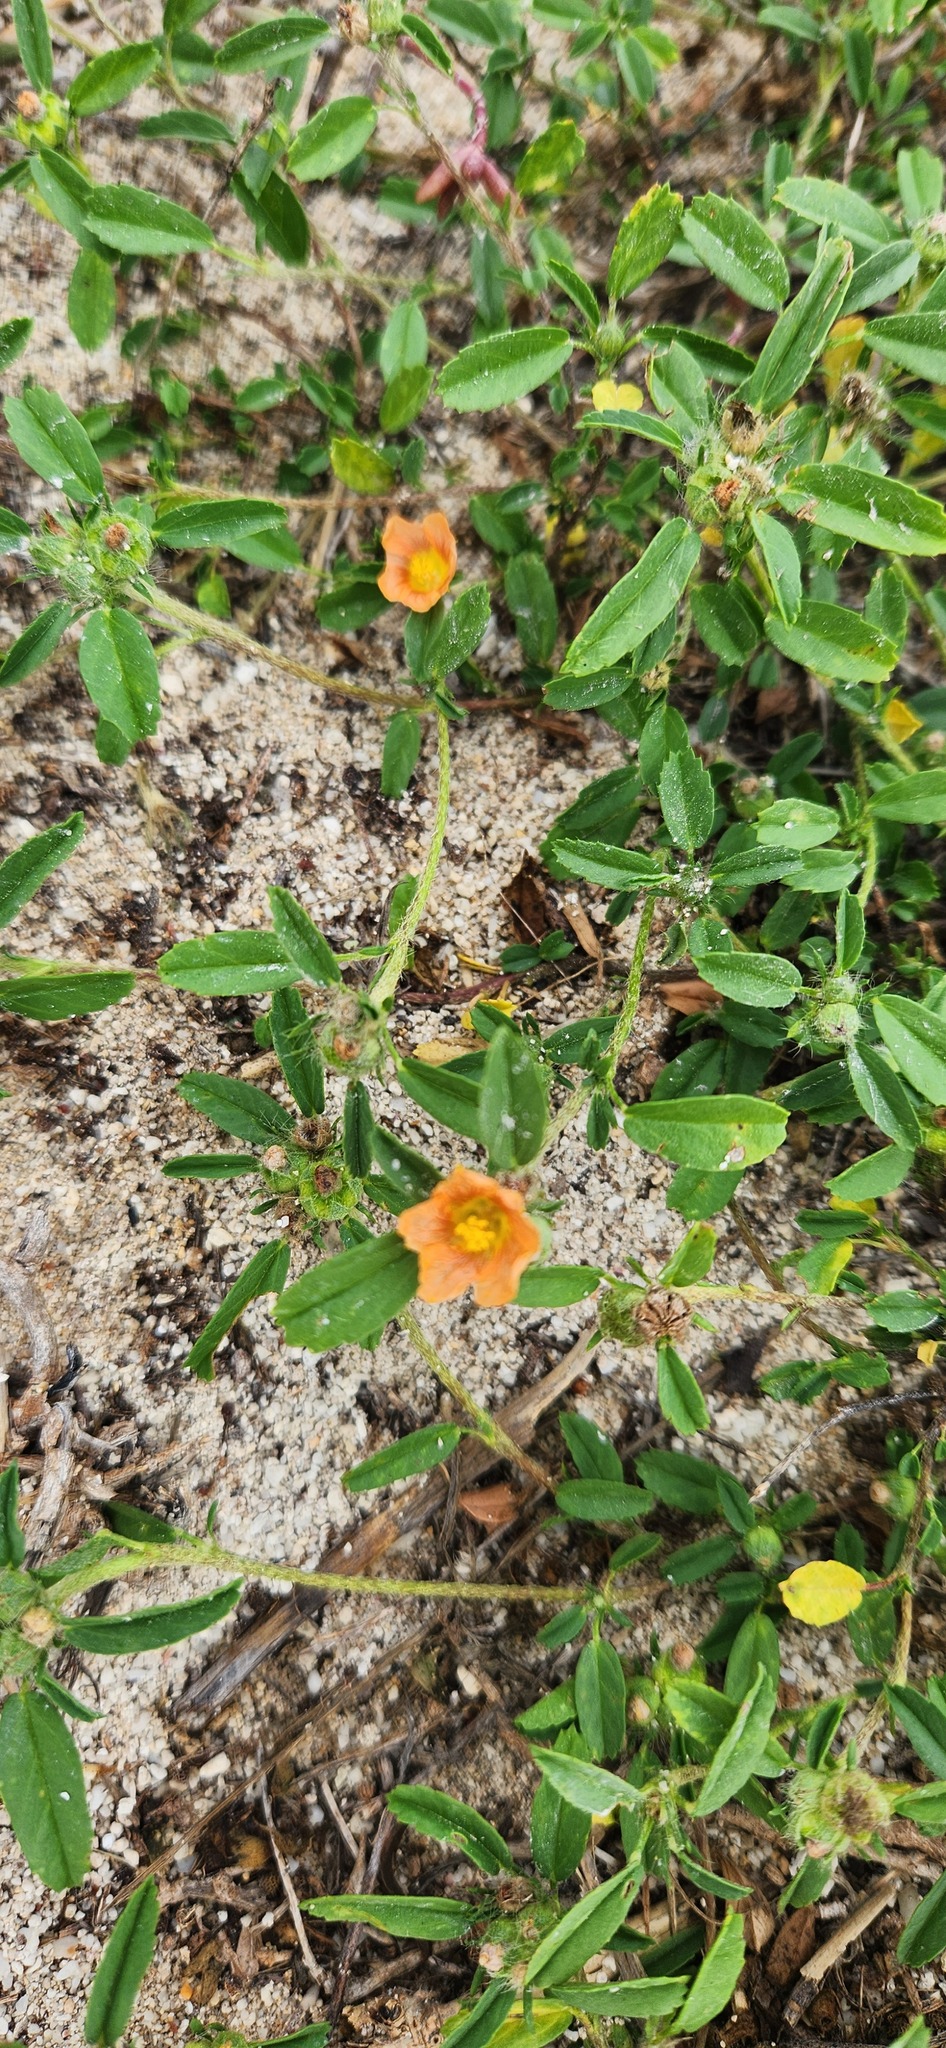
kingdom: Plantae
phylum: Tracheophyta
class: Magnoliopsida
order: Malvales
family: Malvaceae
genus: Sida
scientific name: Sida ciliaris
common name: Bracted fanpetals
